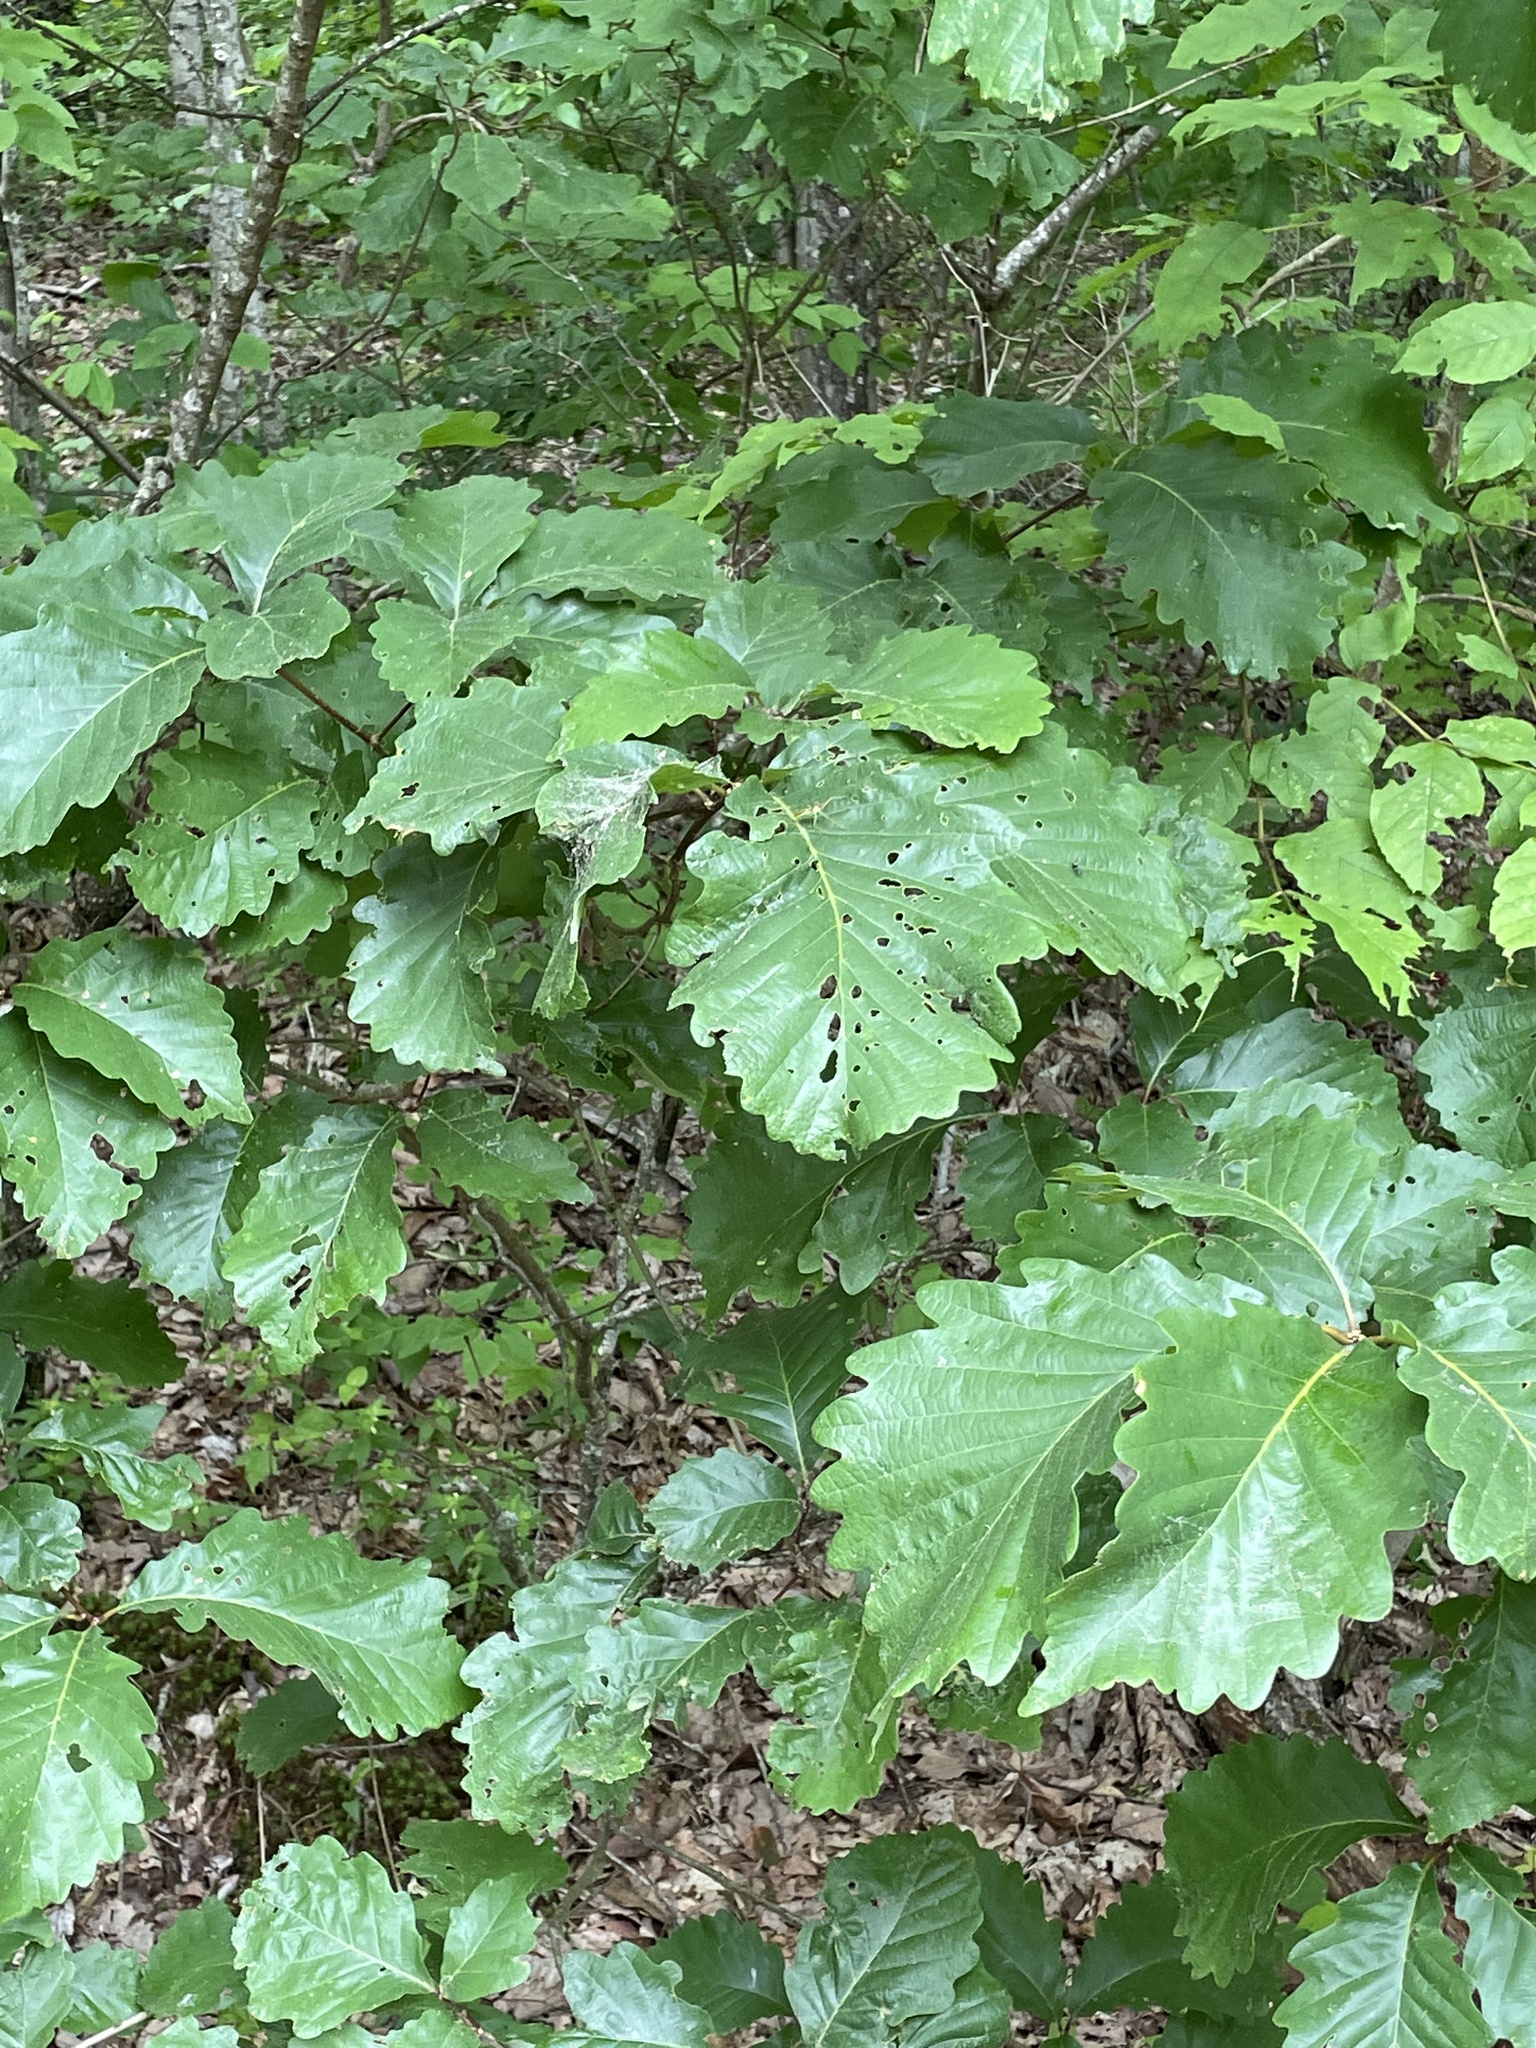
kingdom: Plantae
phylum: Tracheophyta
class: Magnoliopsida
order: Fagales
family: Fagaceae
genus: Quercus
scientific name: Quercus montana
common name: Chestnut oak
